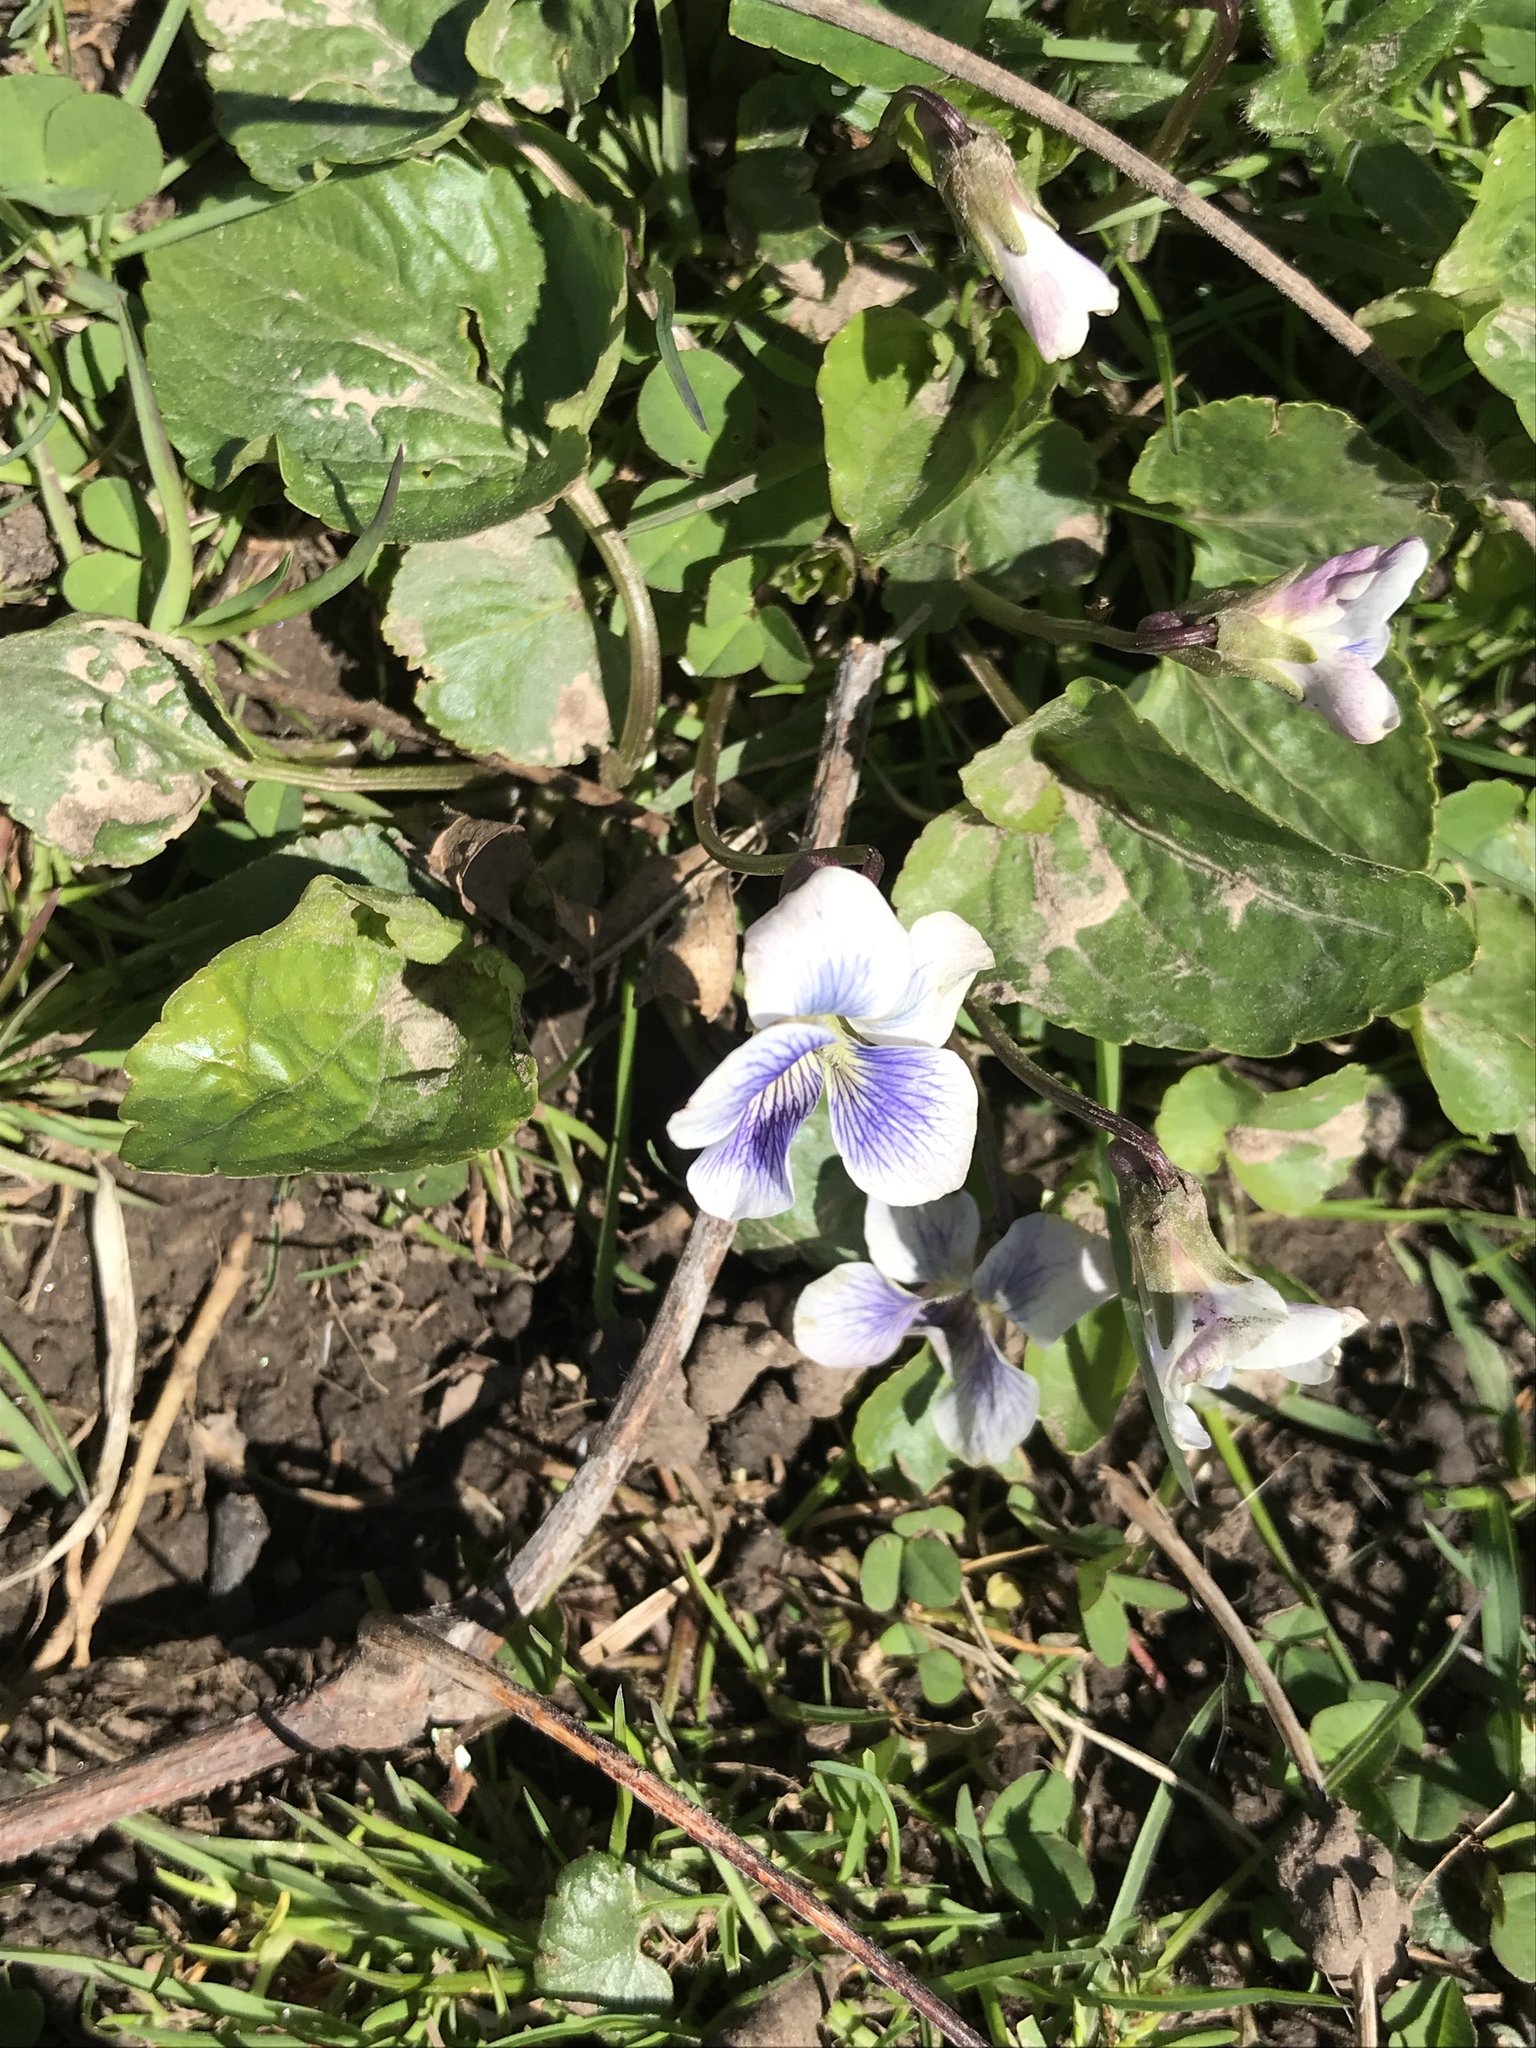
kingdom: Plantae
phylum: Tracheophyta
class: Magnoliopsida
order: Malpighiales
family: Violaceae
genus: Viola
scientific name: Viola sororia
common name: Dooryard violet
